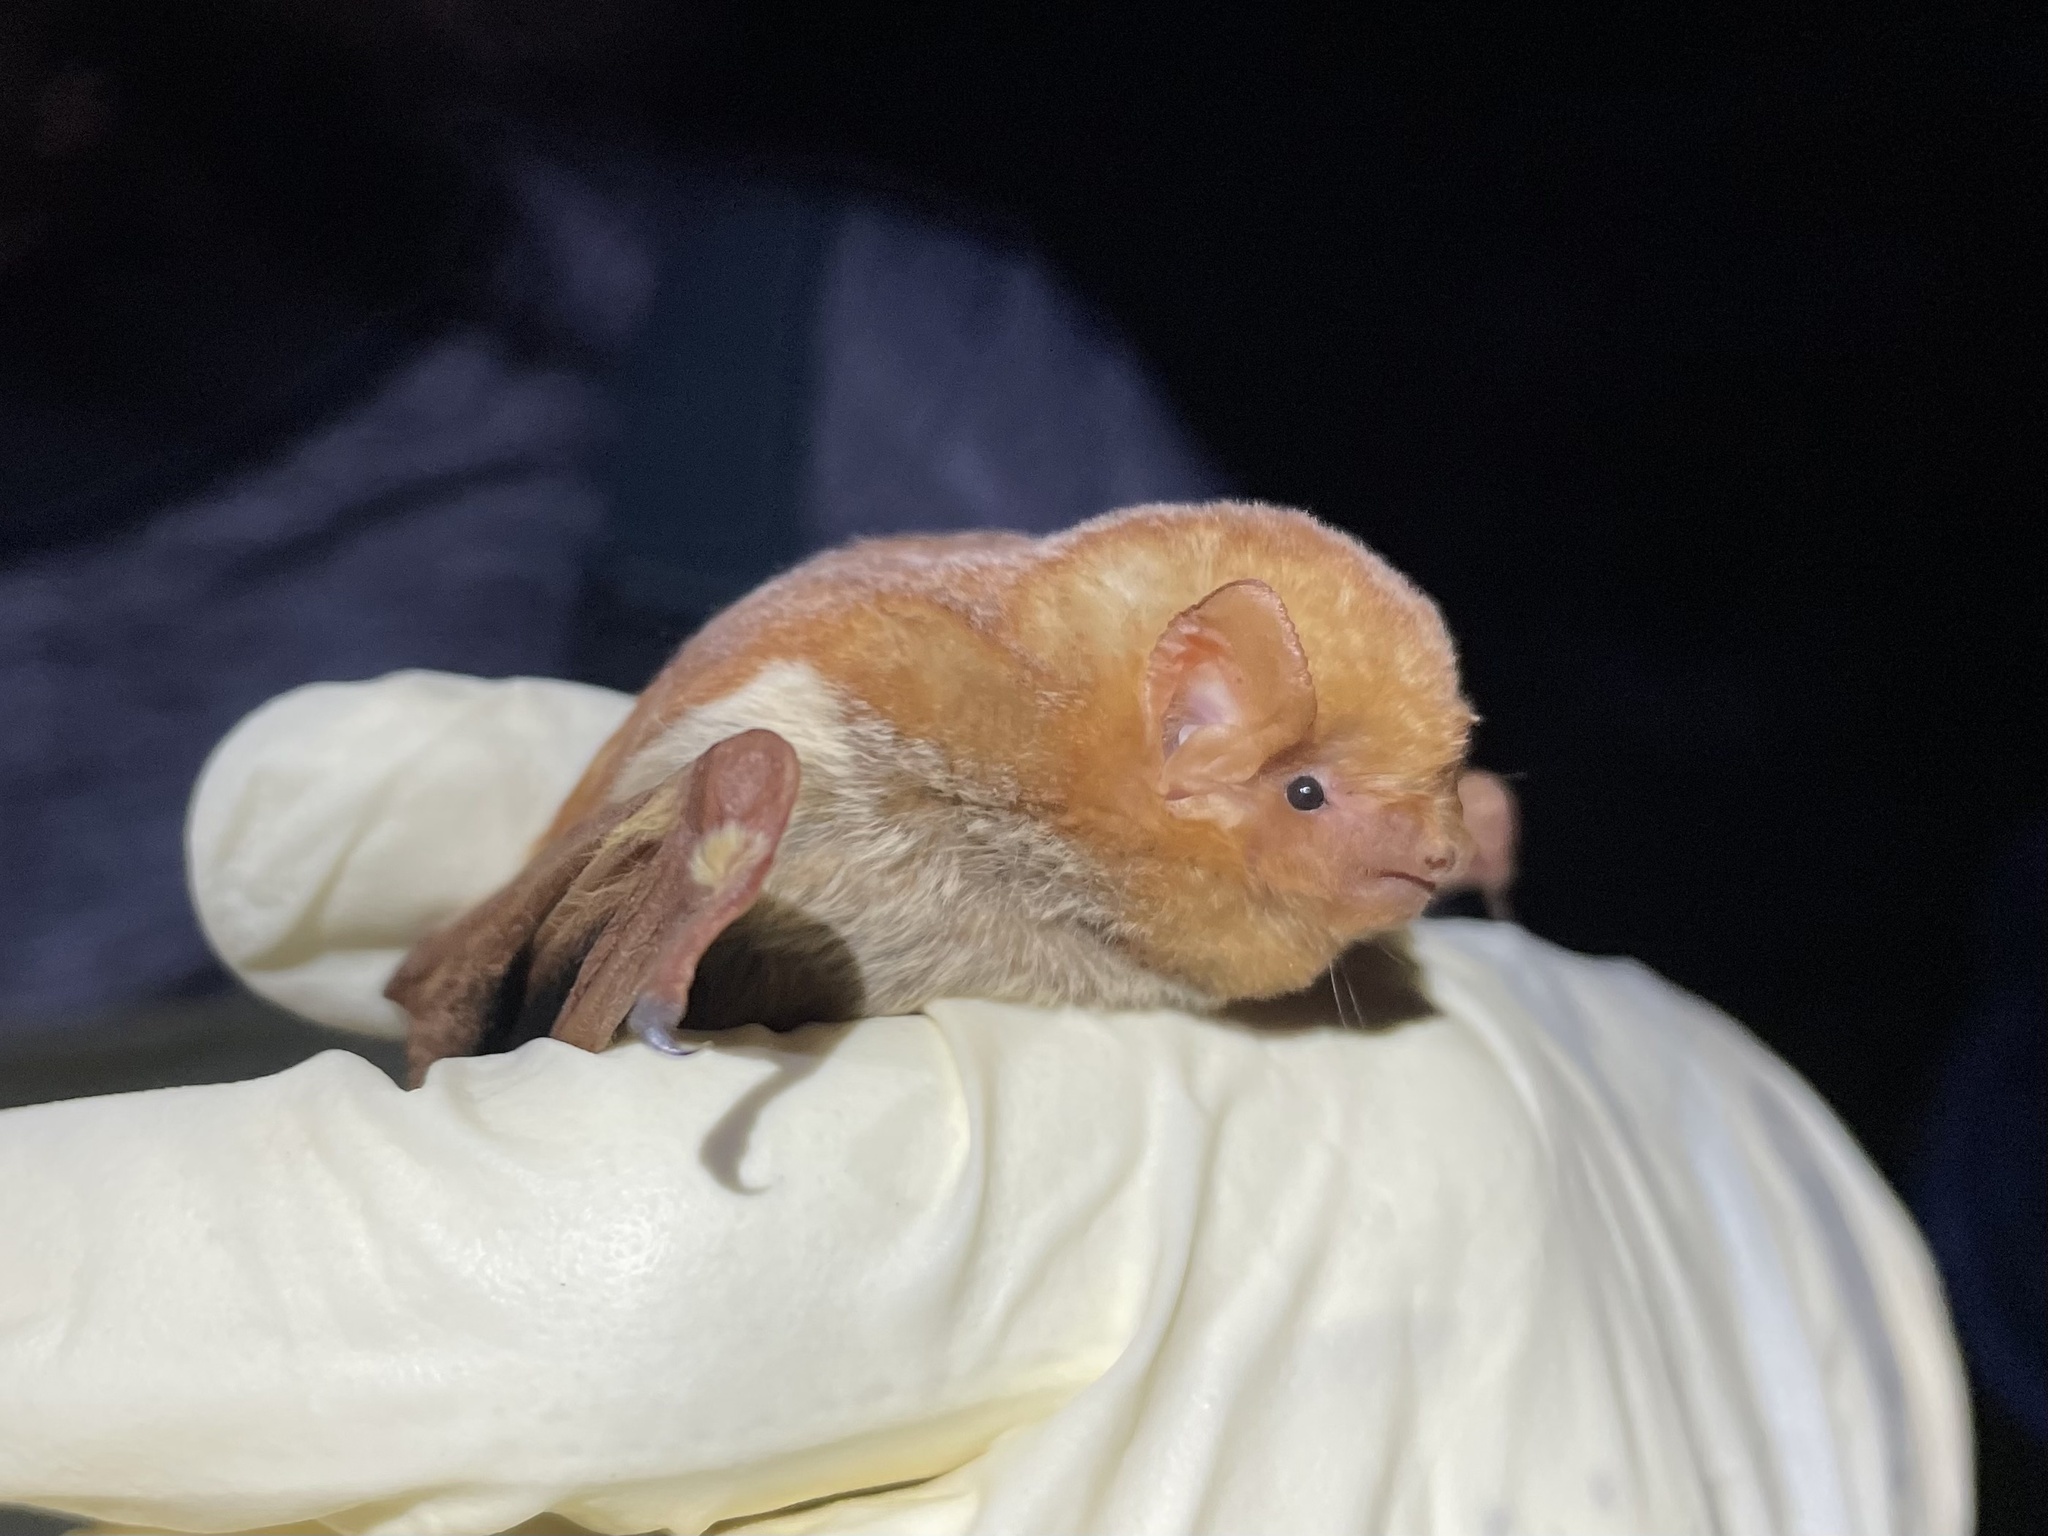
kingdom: Animalia
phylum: Chordata
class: Mammalia
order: Chiroptera
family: Vespertilionidae
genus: Lasiurus
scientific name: Lasiurus frantzii
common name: Desert red bat
